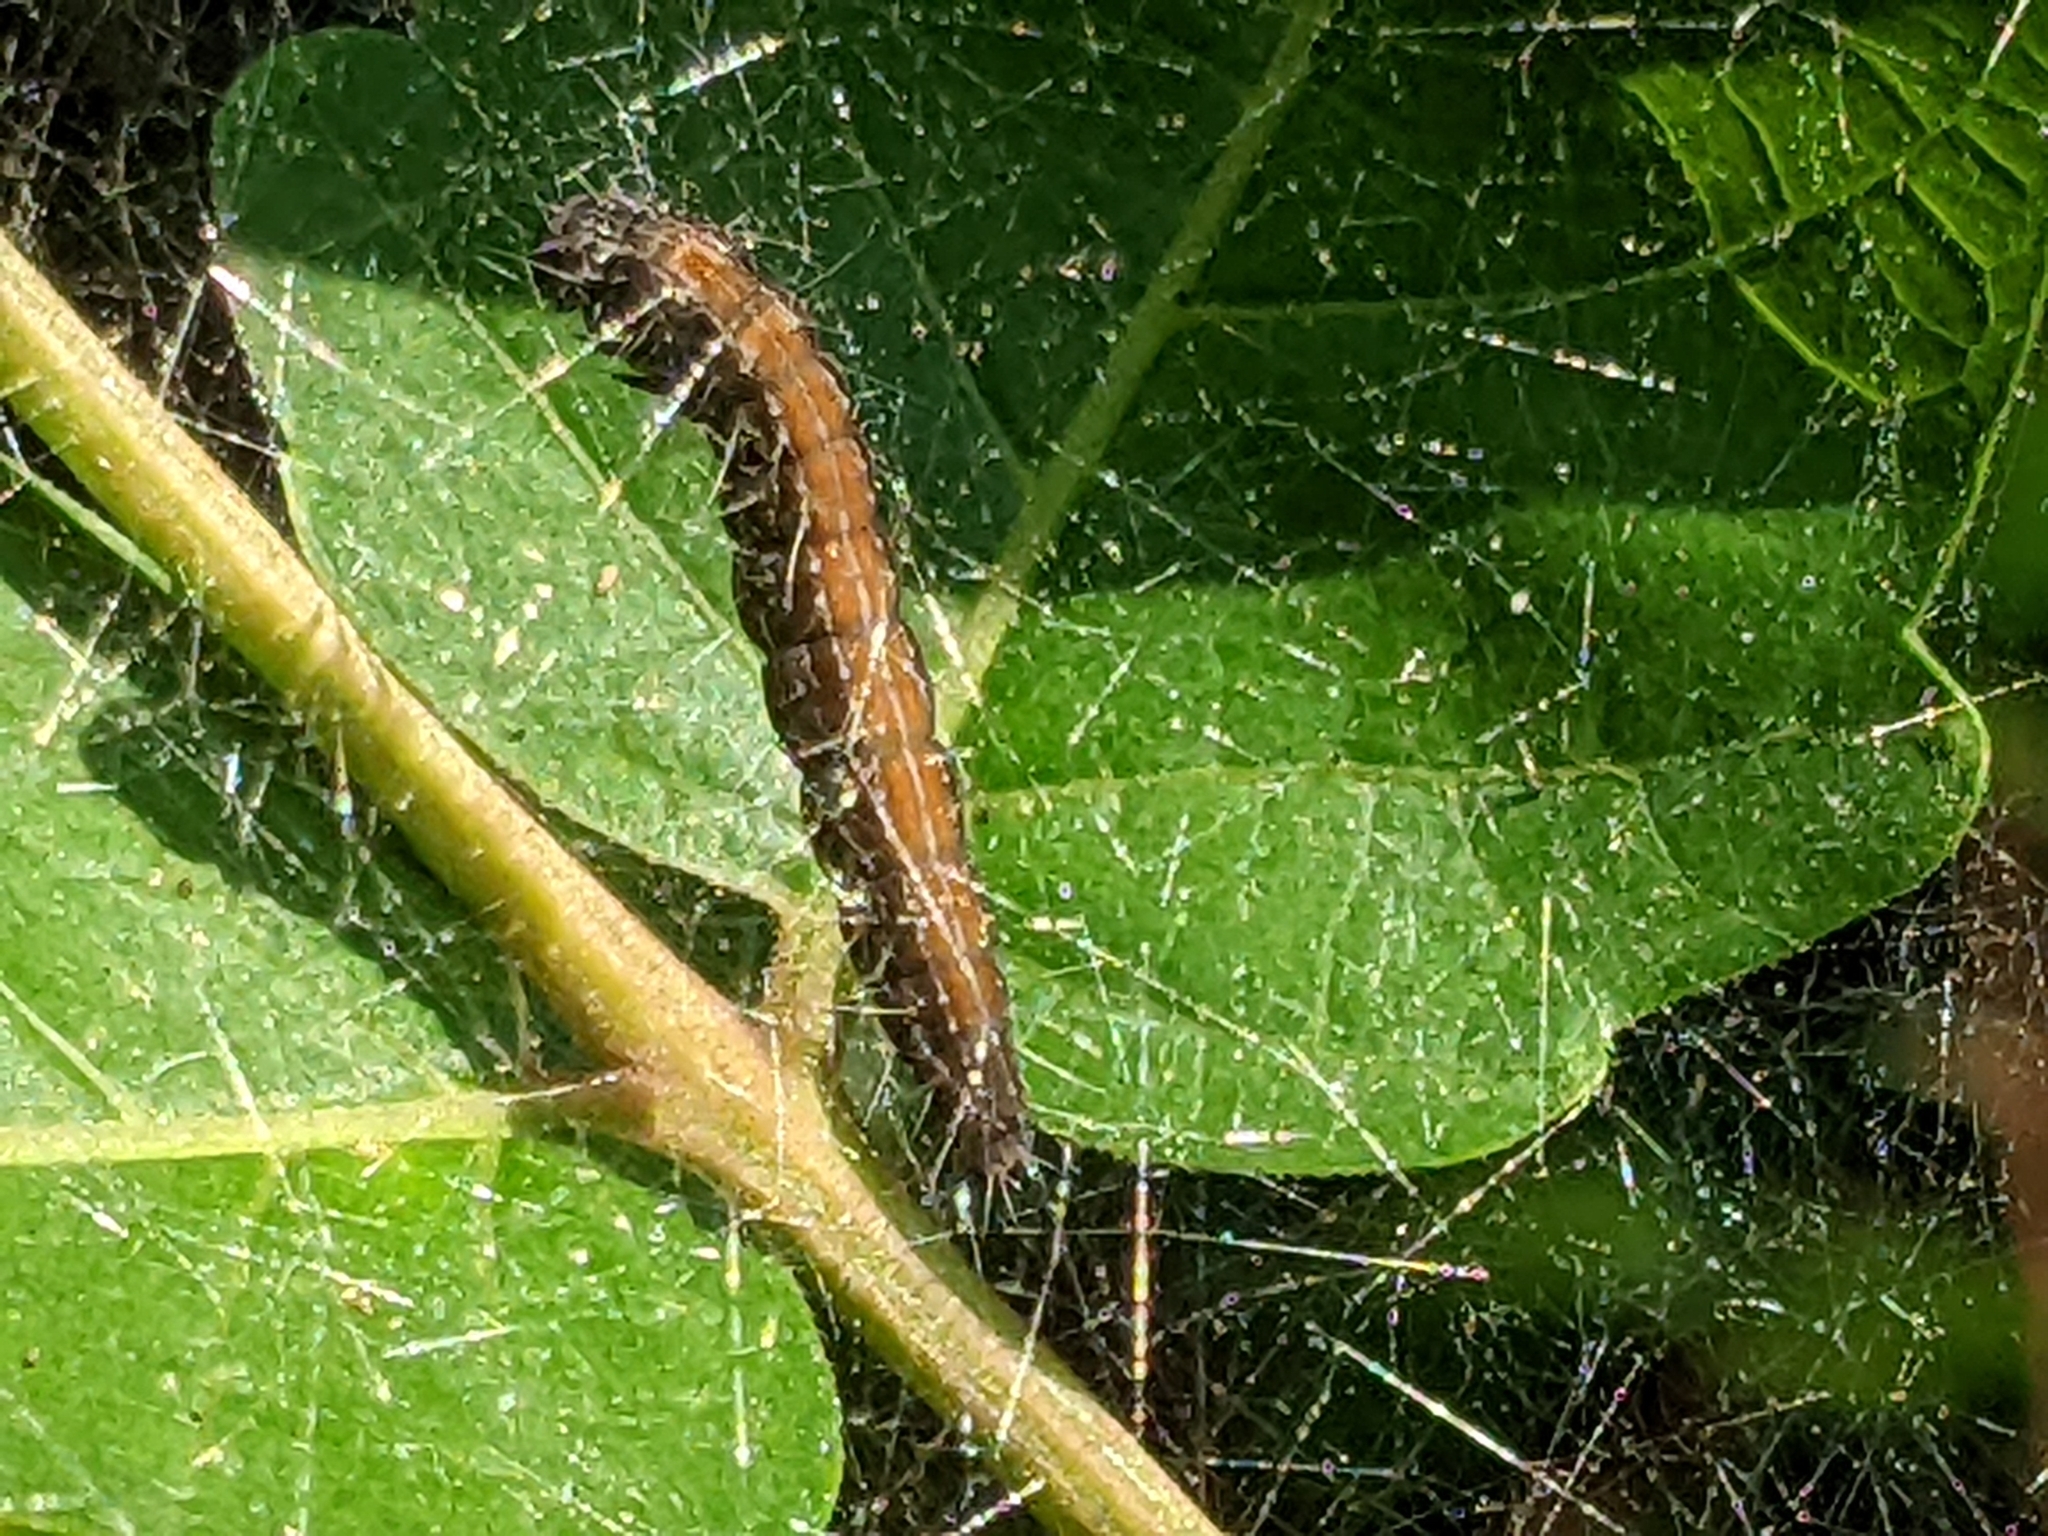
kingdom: Animalia
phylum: Arthropoda
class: Insecta
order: Lepidoptera
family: Attevidae
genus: Atteva
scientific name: Atteva punctella
